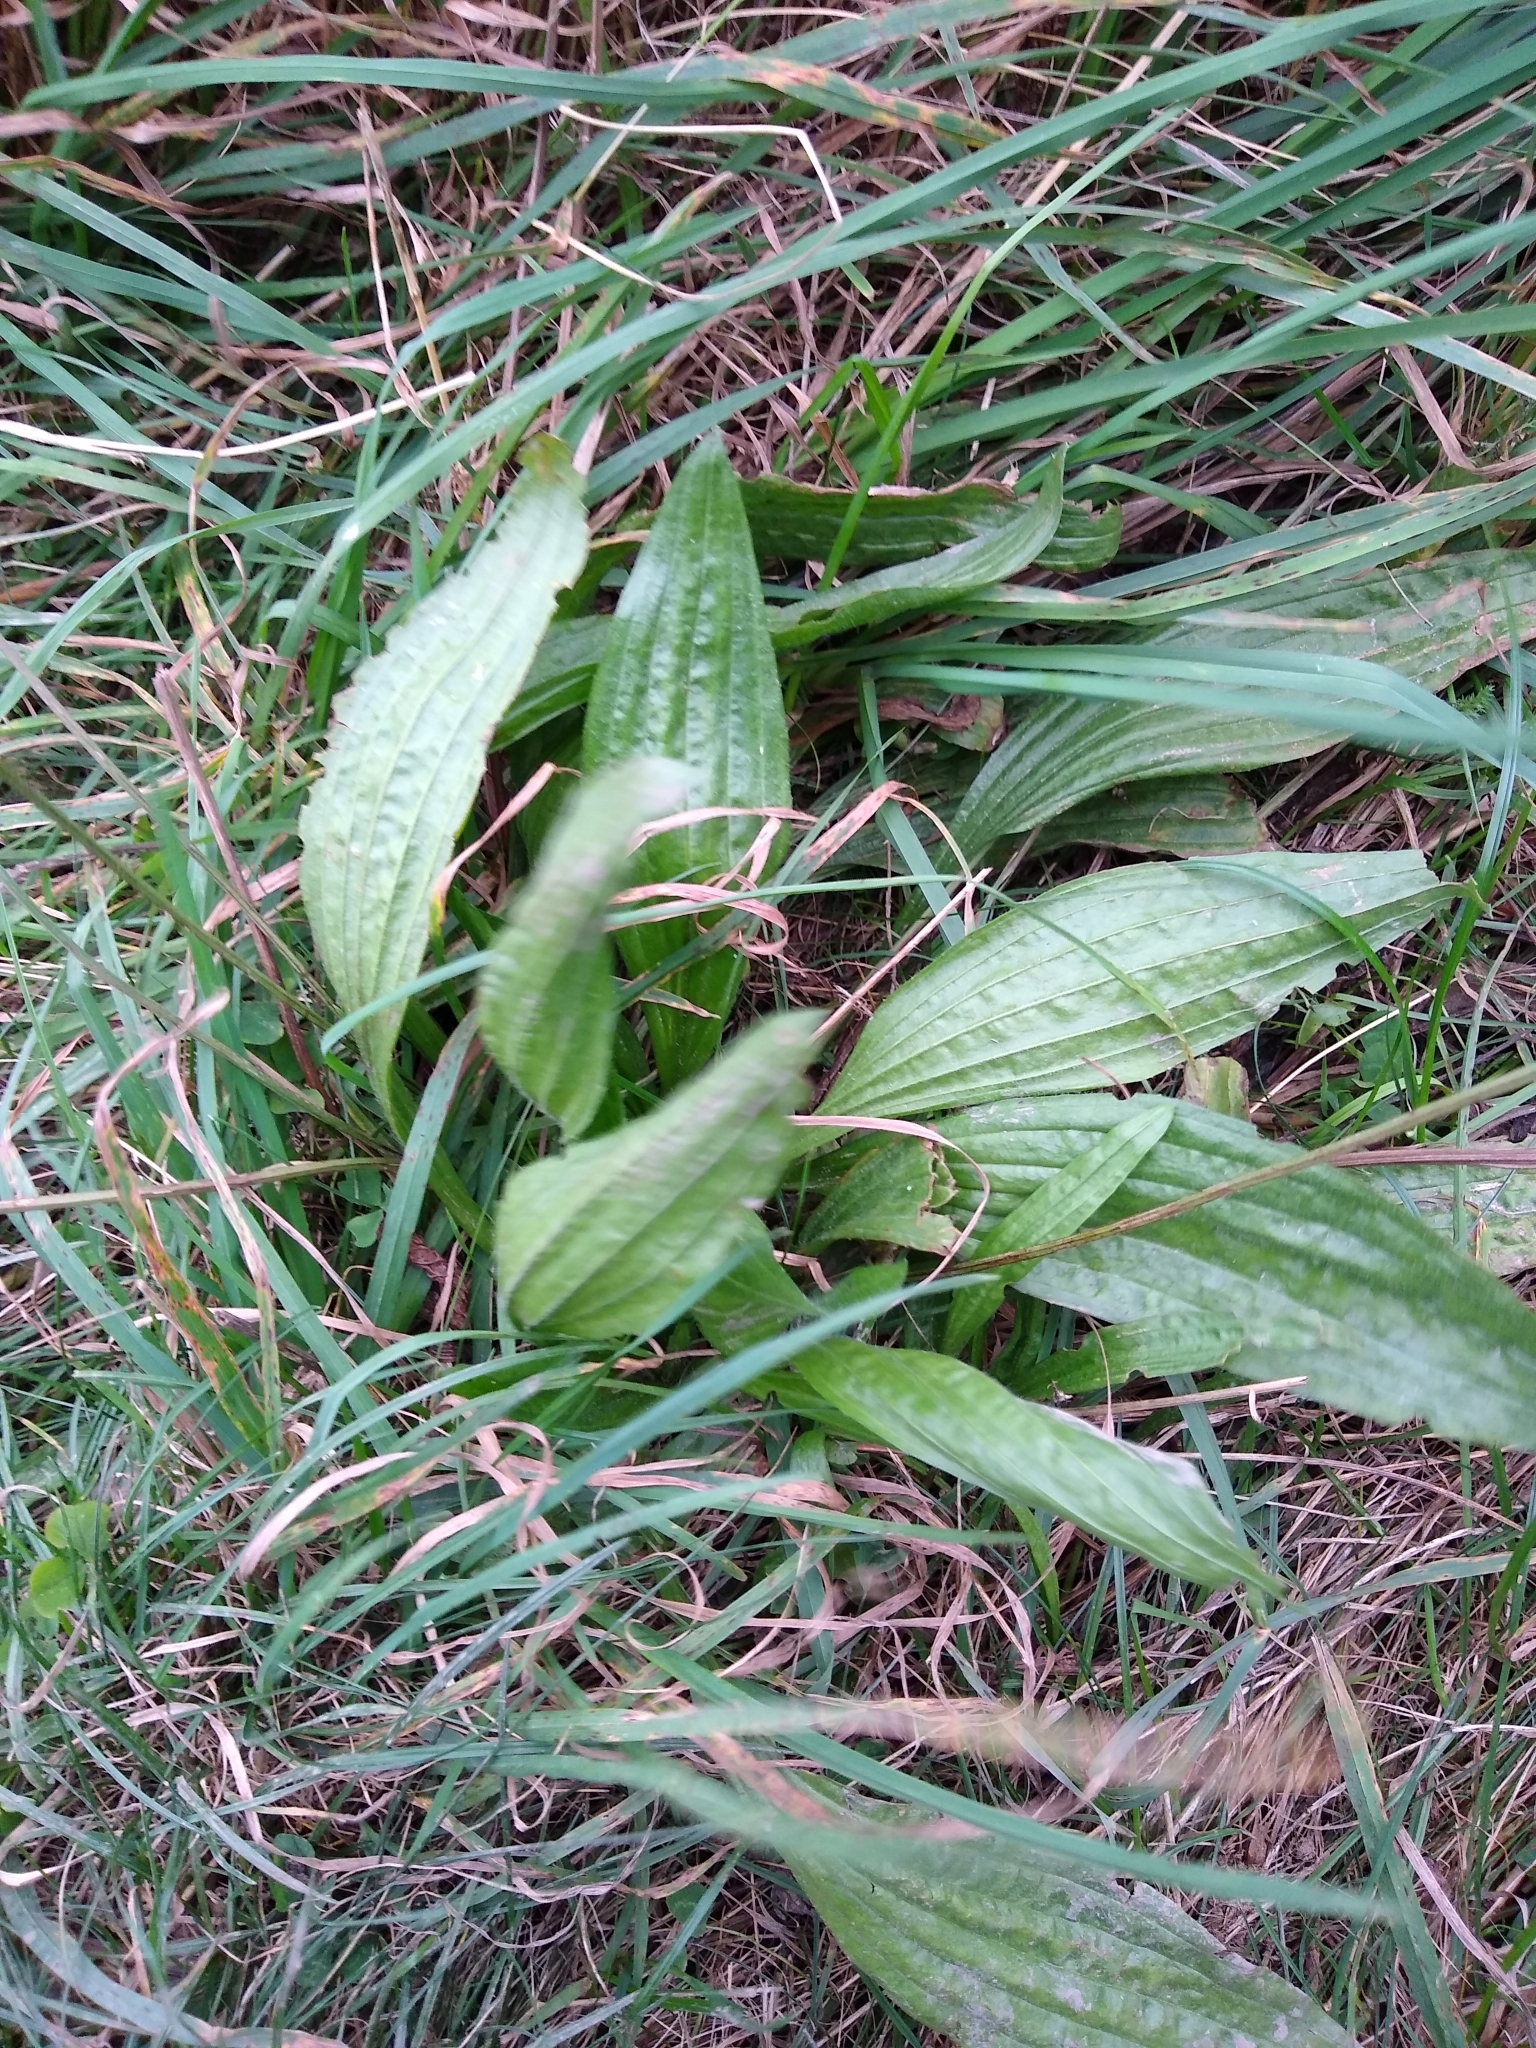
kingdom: Plantae
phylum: Tracheophyta
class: Magnoliopsida
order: Lamiales
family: Plantaginaceae
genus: Plantago
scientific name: Plantago lanceolata
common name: Ribwort plantain
